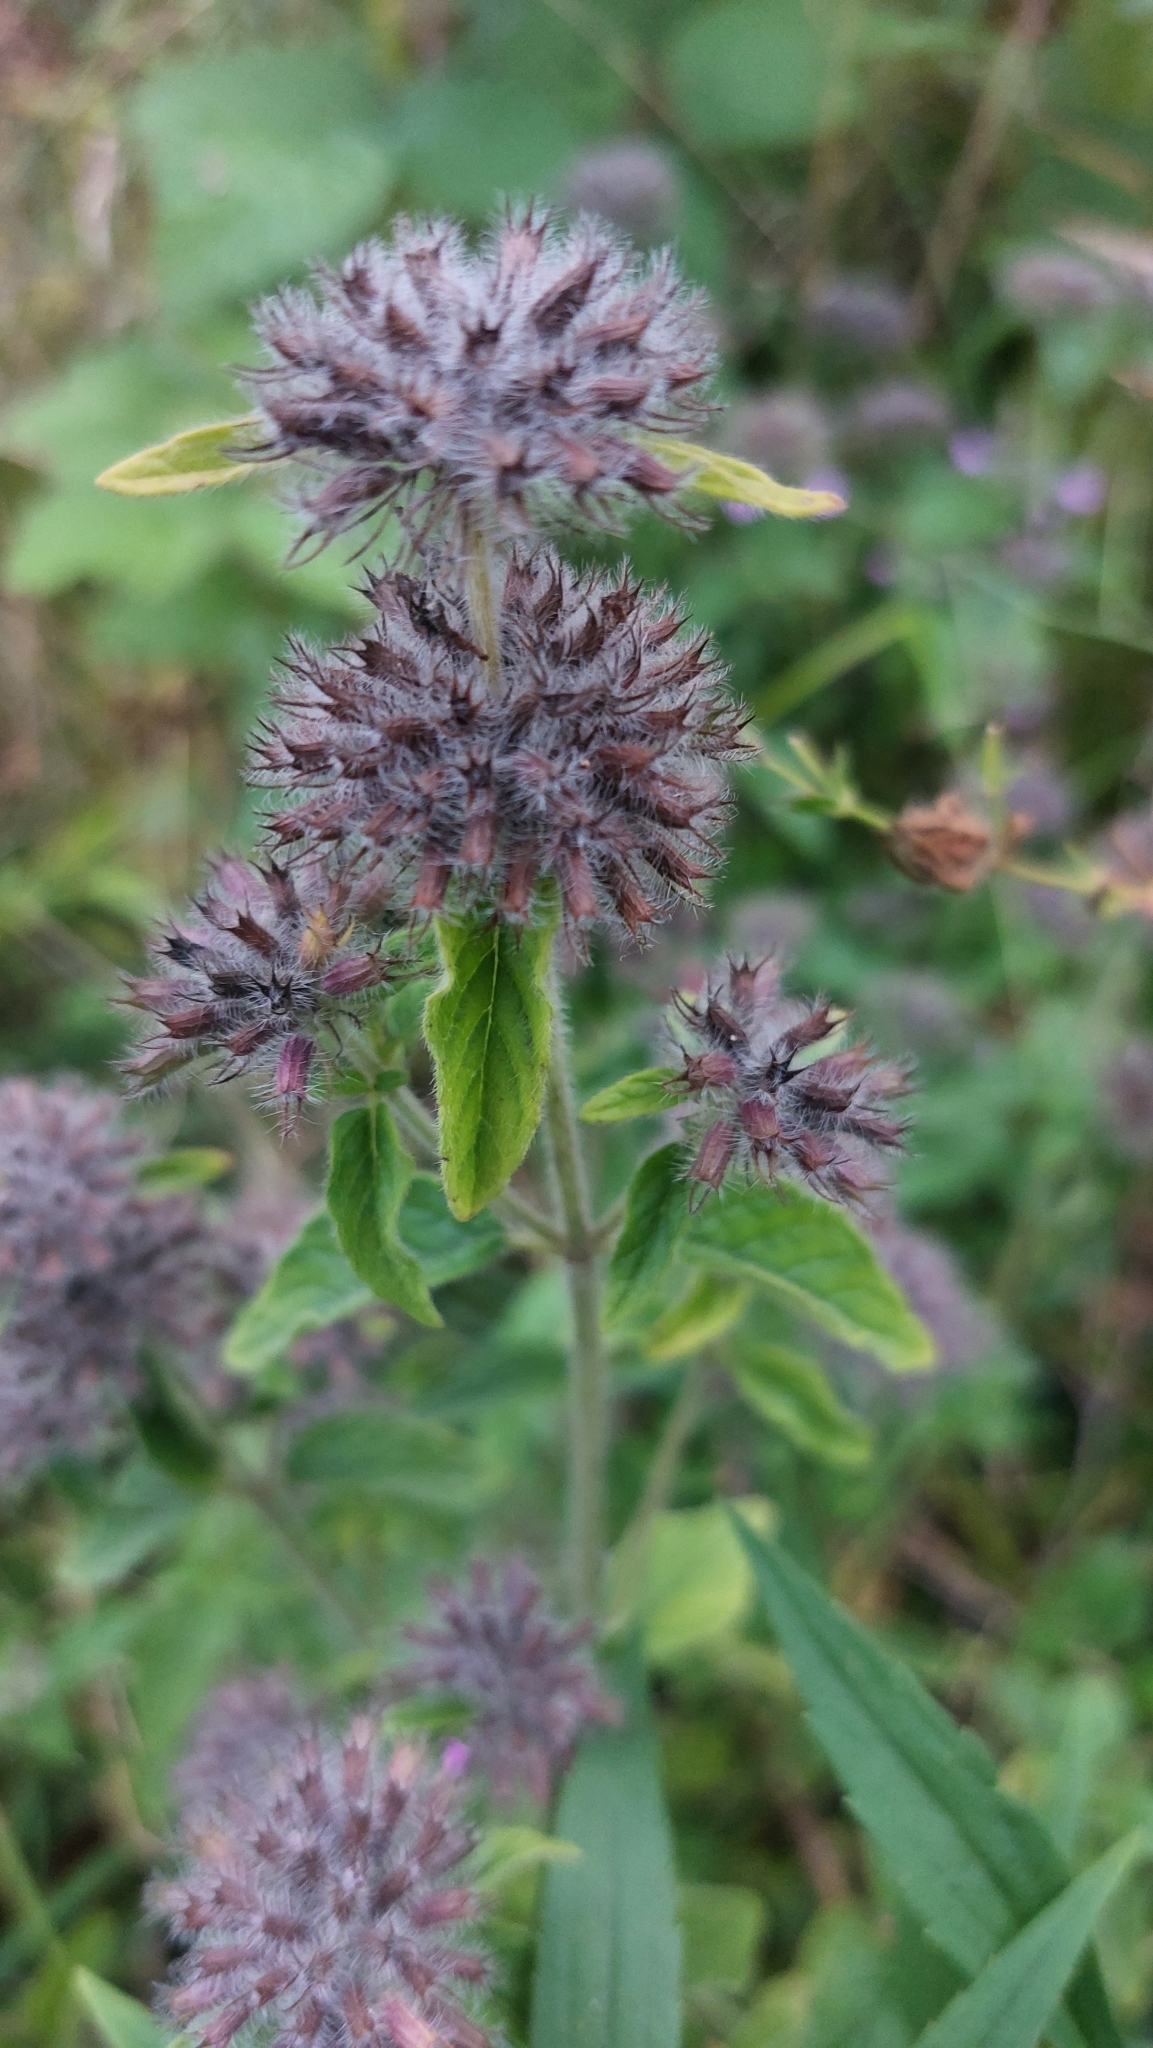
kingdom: Plantae
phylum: Tracheophyta
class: Magnoliopsida
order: Lamiales
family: Lamiaceae
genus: Clinopodium
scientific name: Clinopodium vulgare
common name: Wild basil
